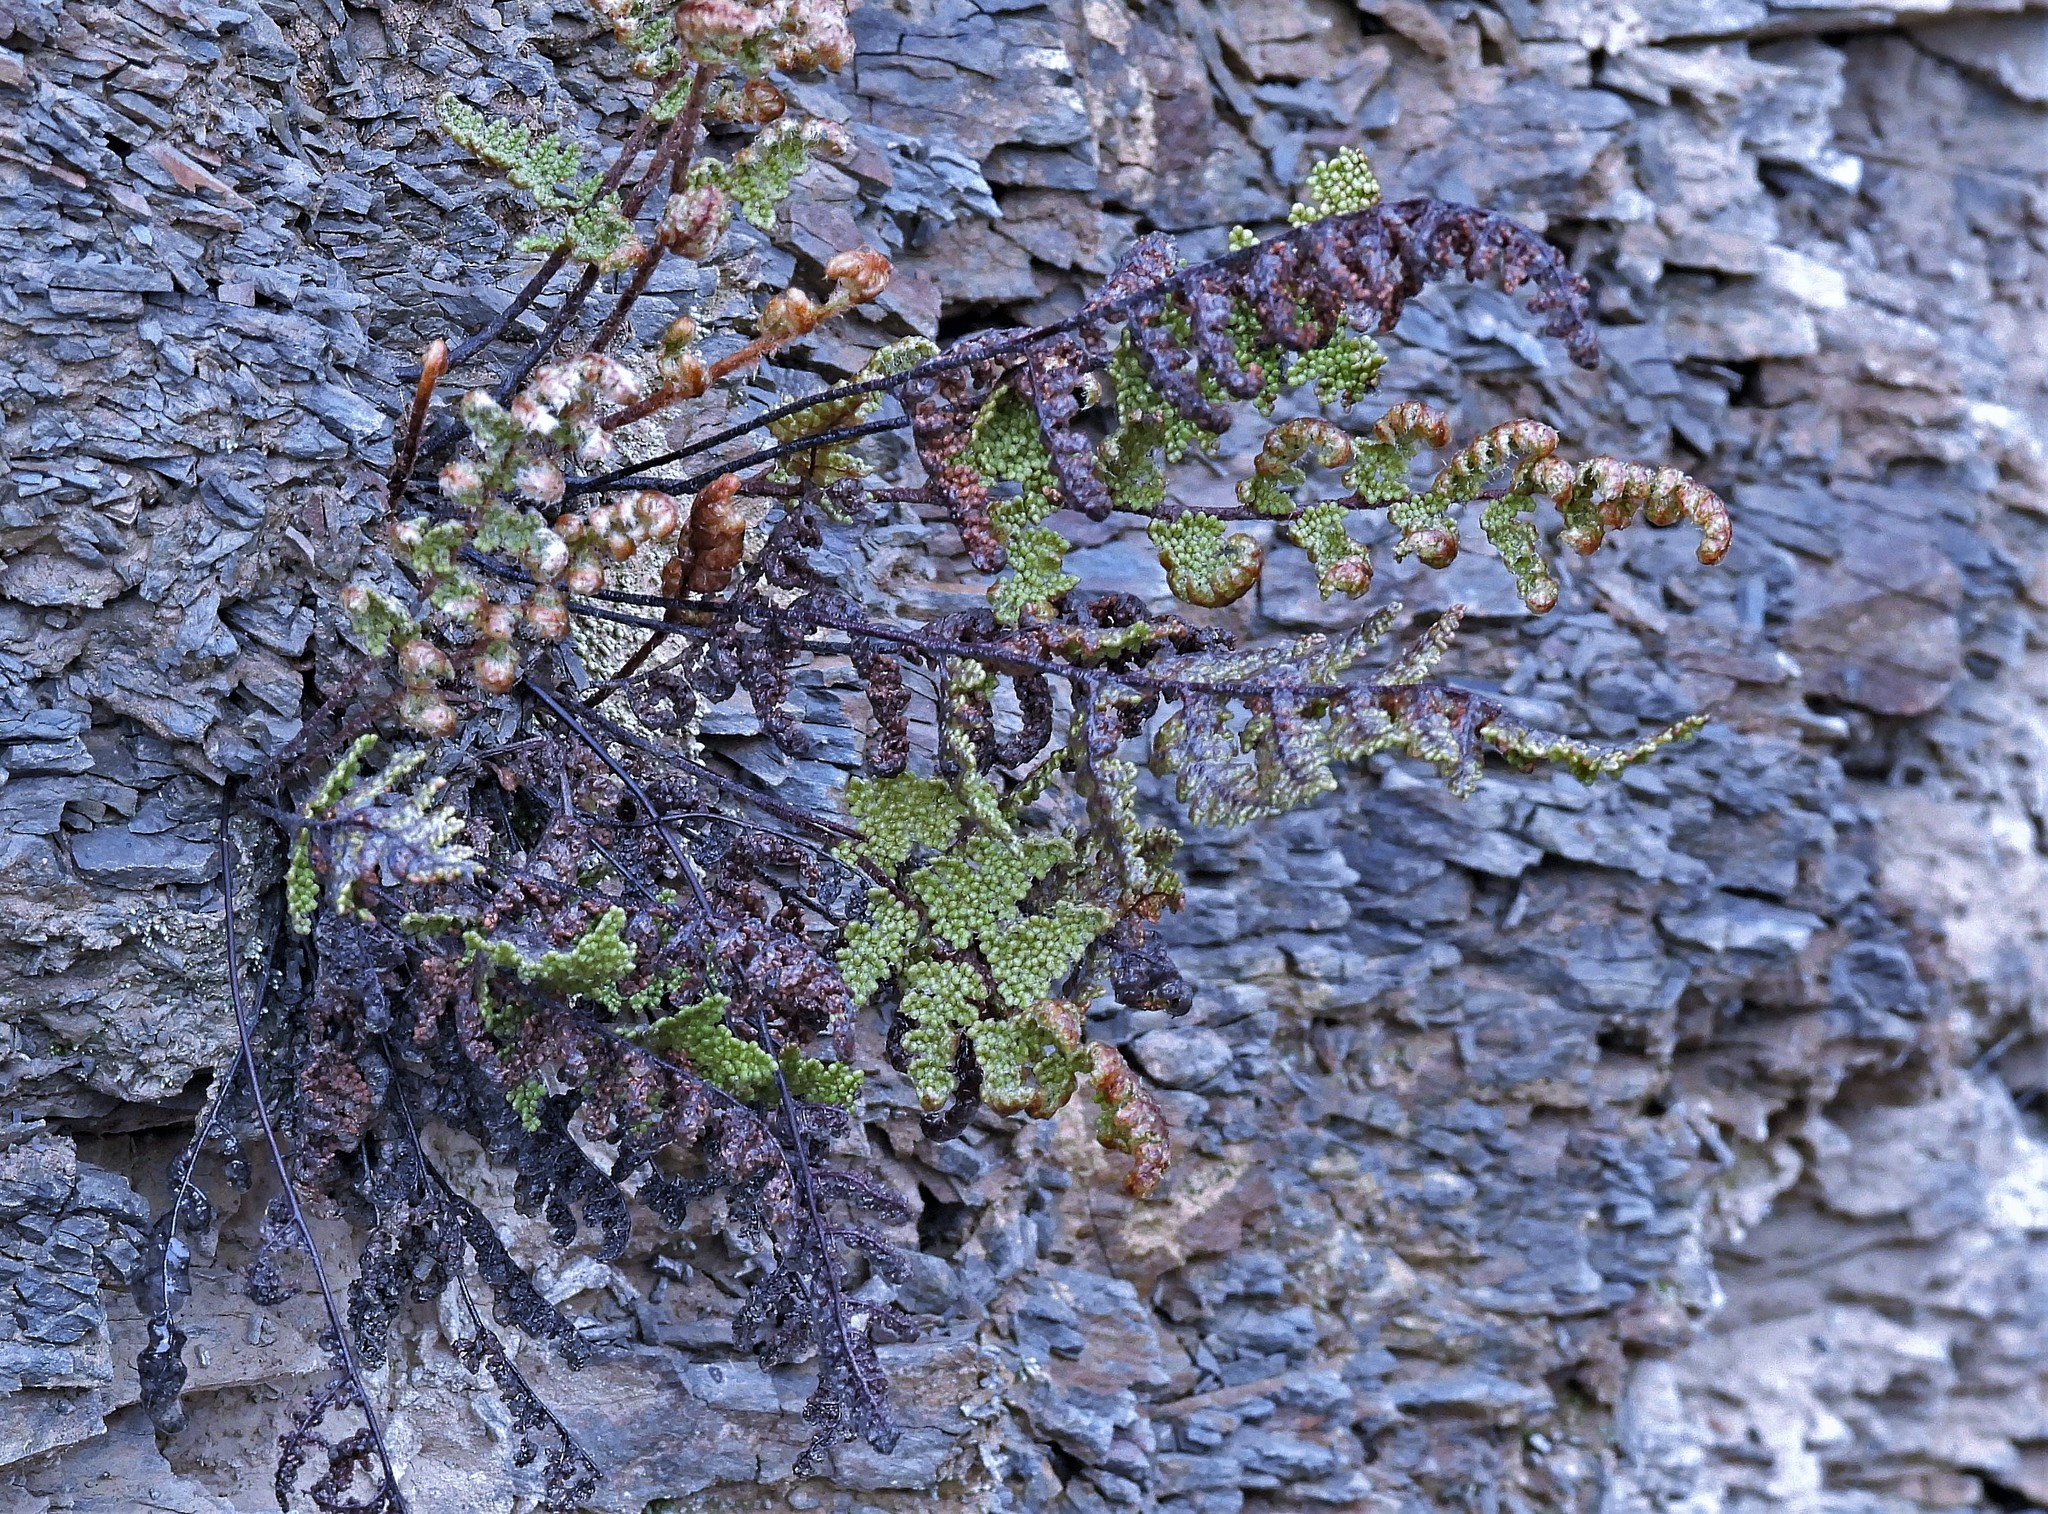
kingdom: Plantae
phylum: Tracheophyta
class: Polypodiopsida
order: Polypodiales
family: Pteridaceae
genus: Myriopteris
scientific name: Myriopteris myriophylla
